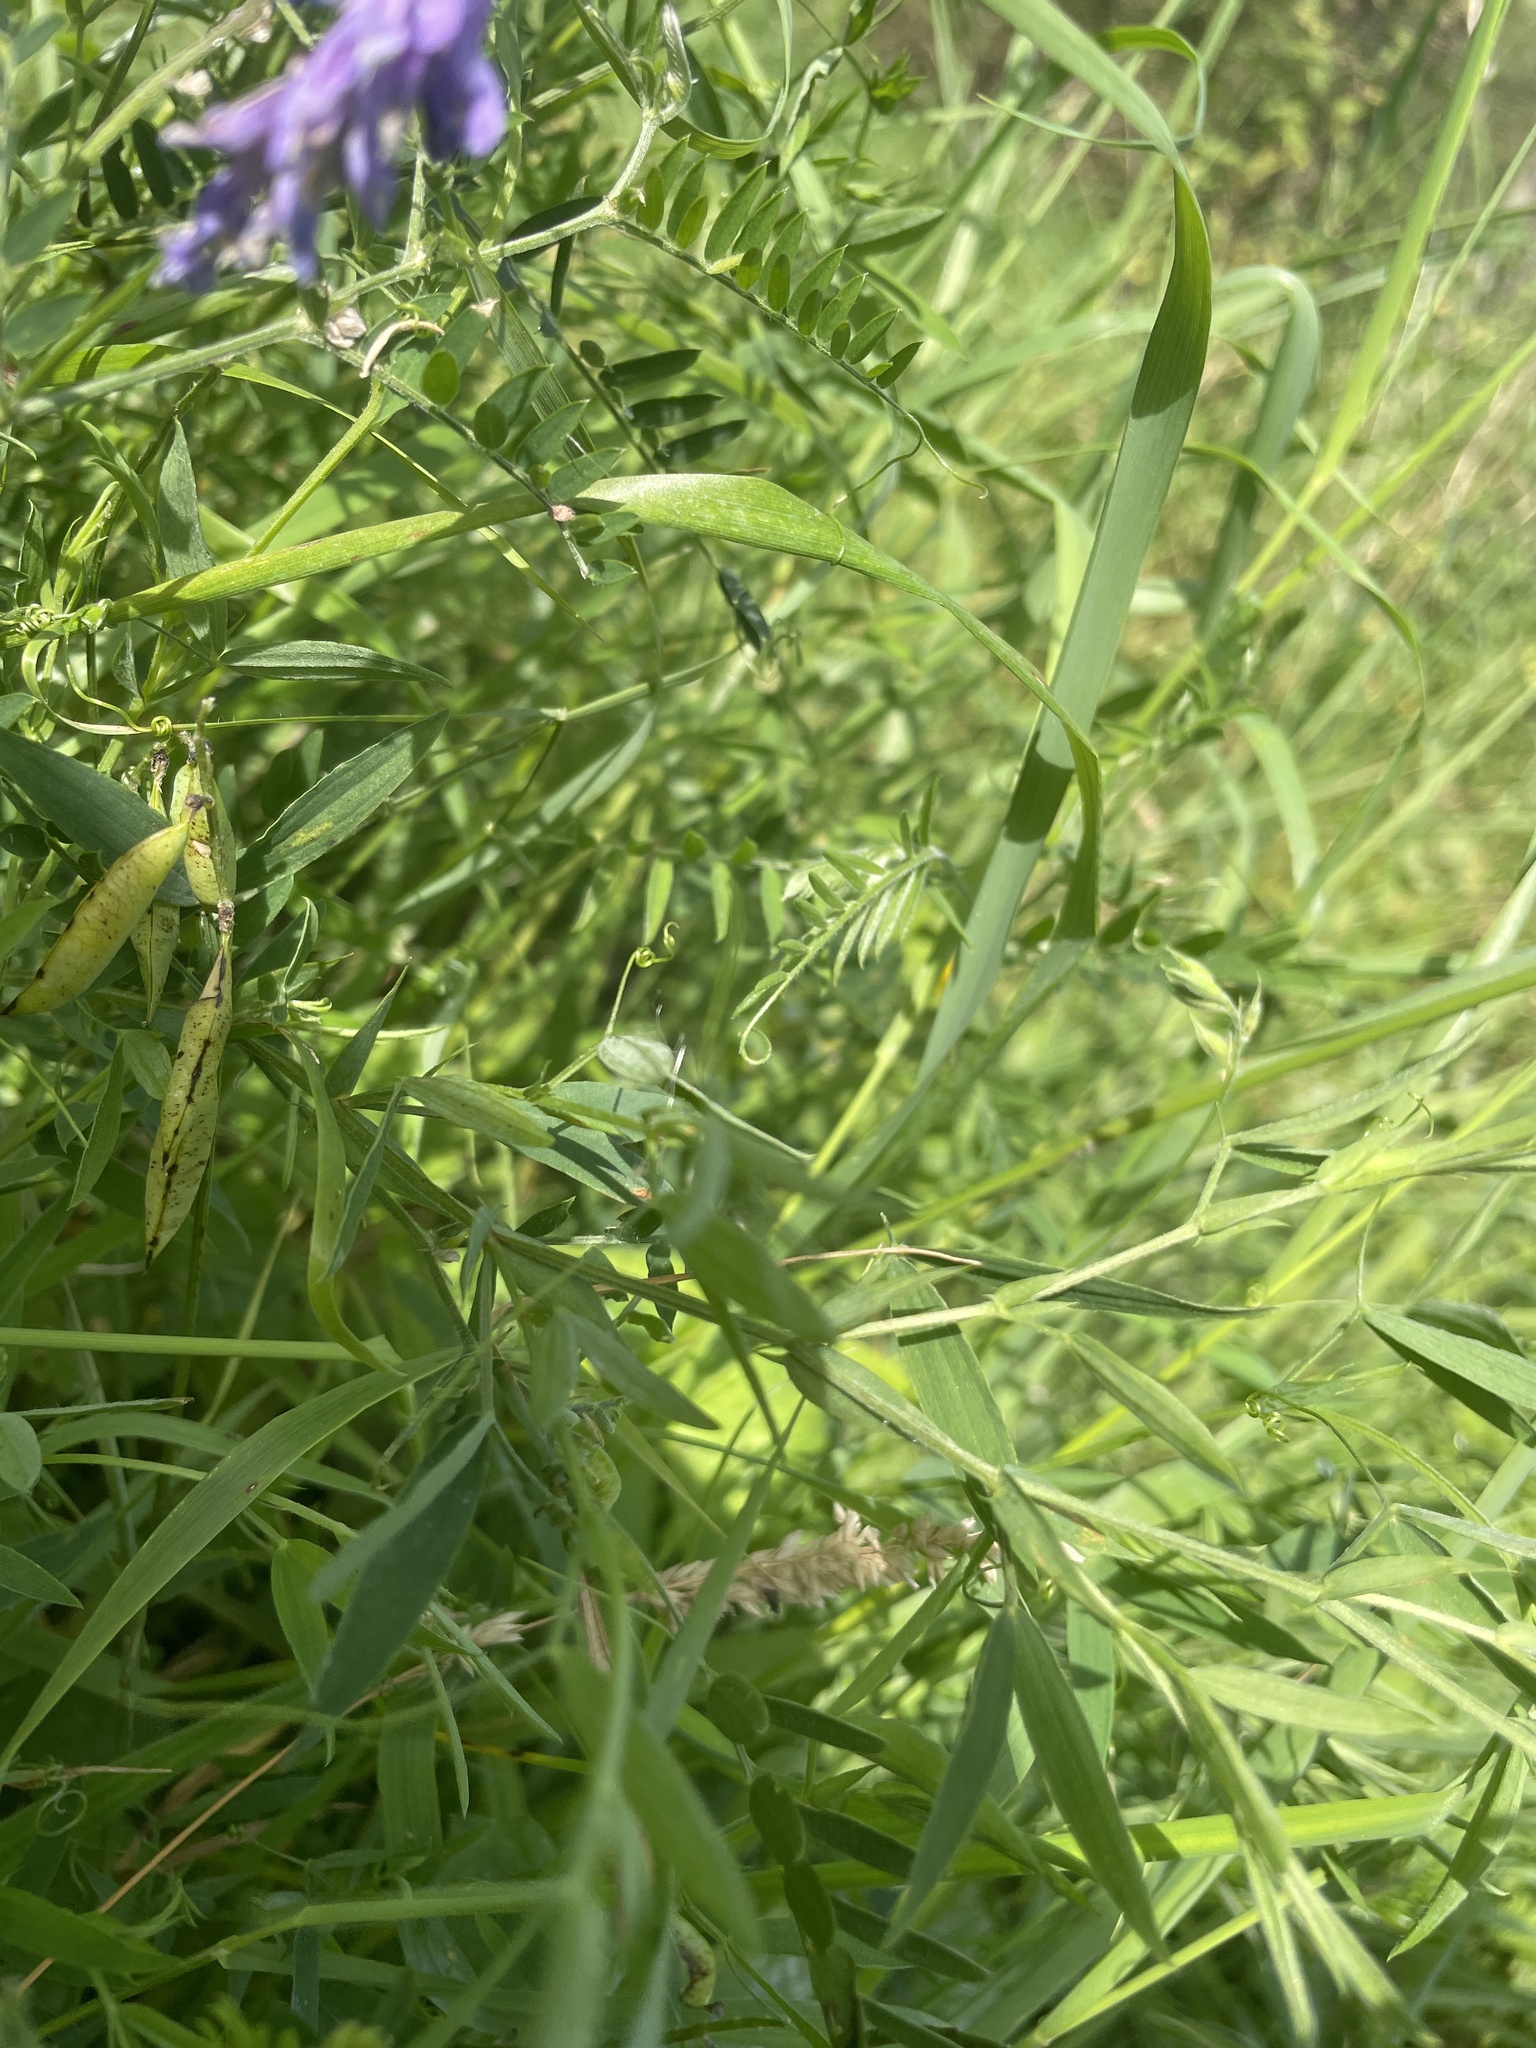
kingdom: Plantae
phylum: Tracheophyta
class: Magnoliopsida
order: Fabales
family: Fabaceae
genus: Vicia
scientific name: Vicia cracca
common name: Bird vetch
